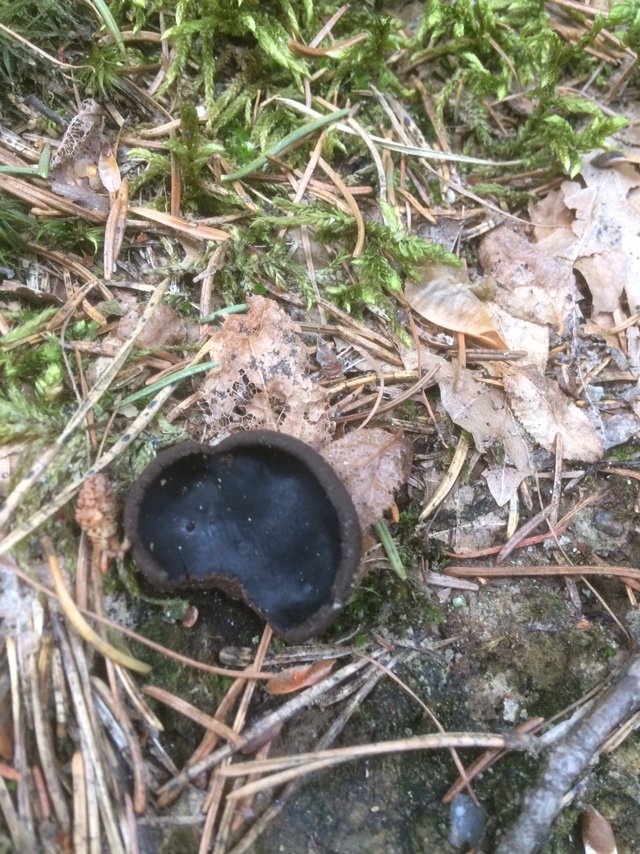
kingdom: Fungi
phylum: Ascomycota
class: Pezizomycetes
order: Pezizales
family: Sarcosomataceae
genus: Pseudoplectania
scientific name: Pseudoplectania nigrella
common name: Ebony cup
